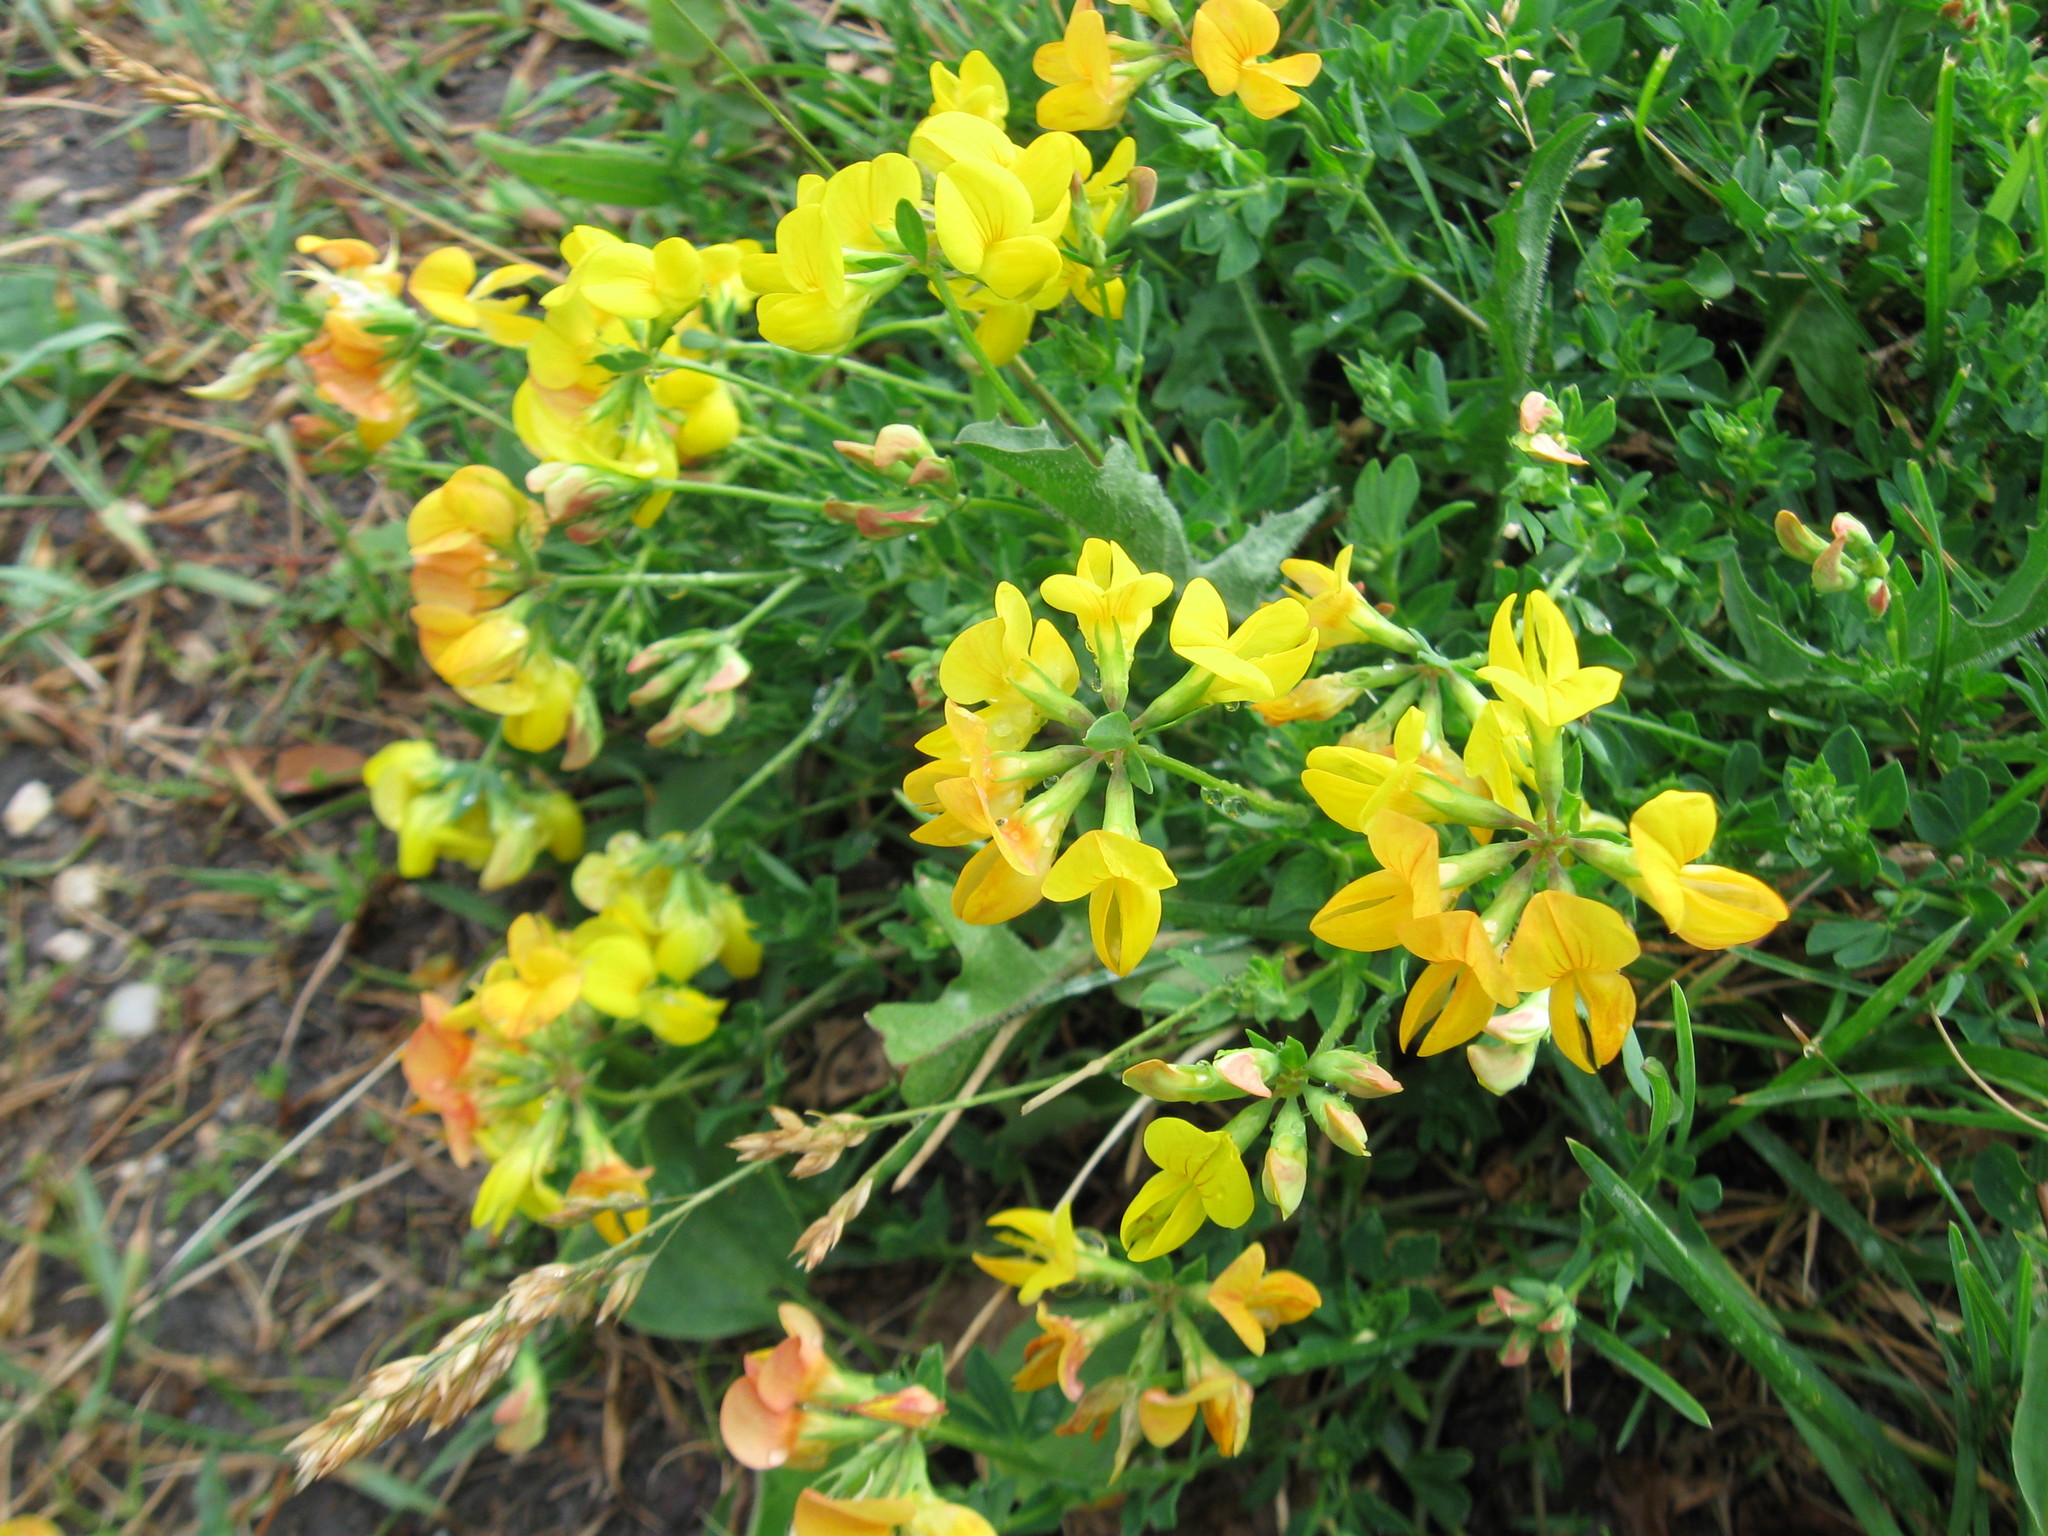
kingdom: Plantae
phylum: Tracheophyta
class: Magnoliopsida
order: Fabales
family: Fabaceae
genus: Lotus
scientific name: Lotus corniculatus
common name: Common bird's-foot-trefoil
